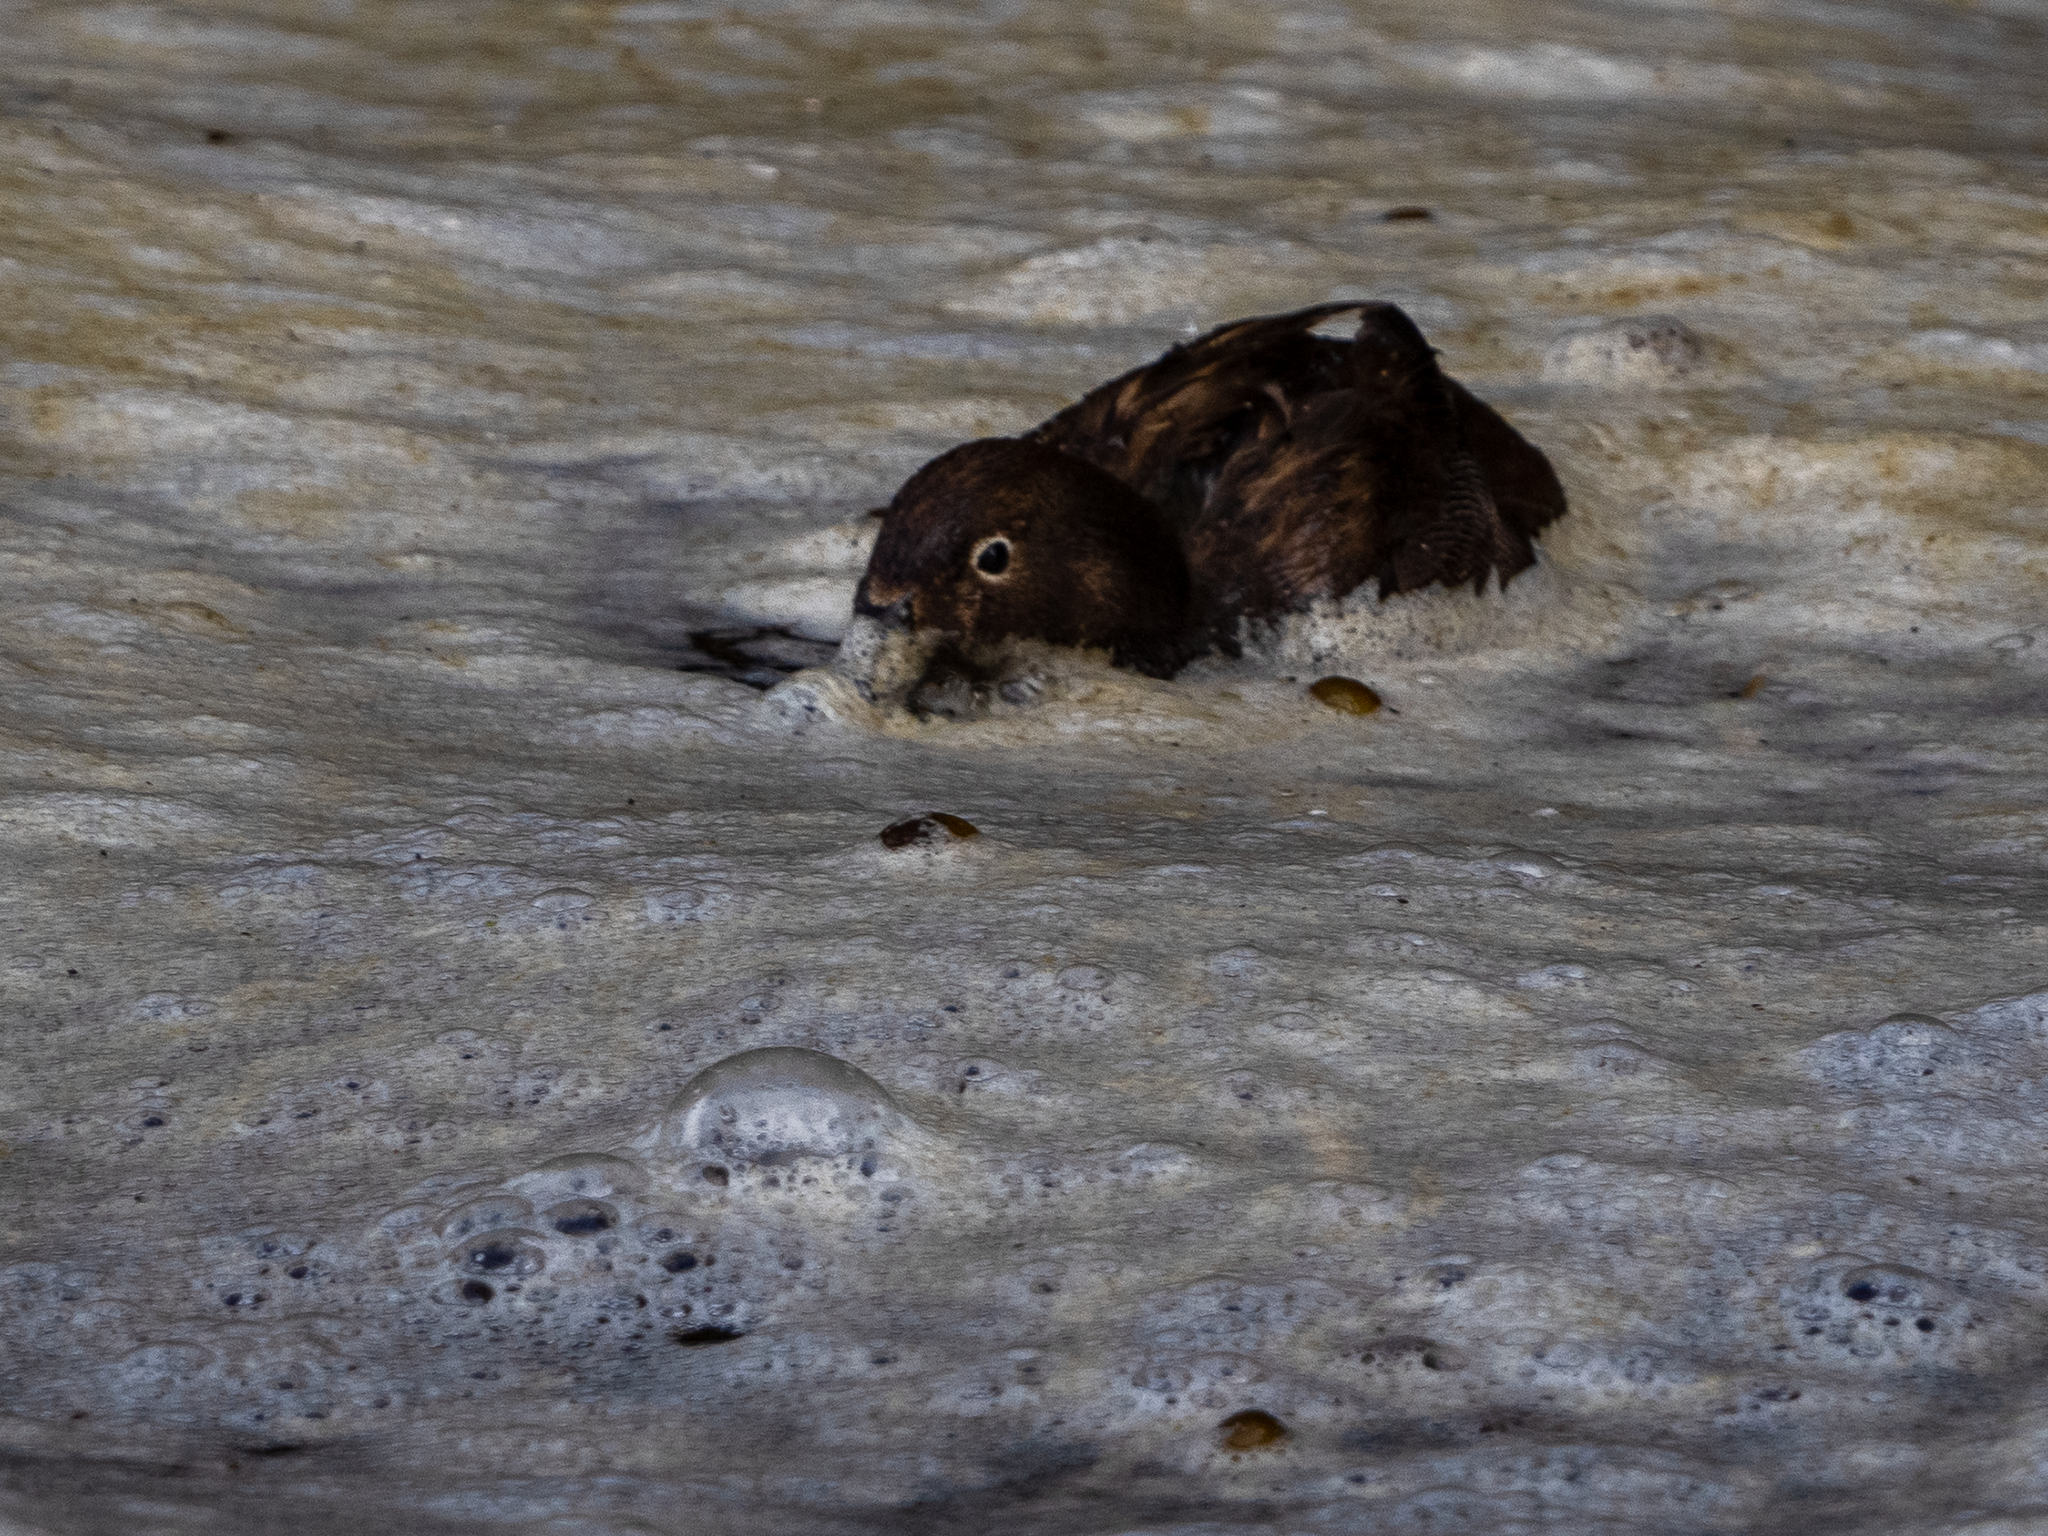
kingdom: Animalia
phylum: Chordata
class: Aves
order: Anseriformes
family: Anatidae
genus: Anas
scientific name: Anas aucklandica
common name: Auckland teal
